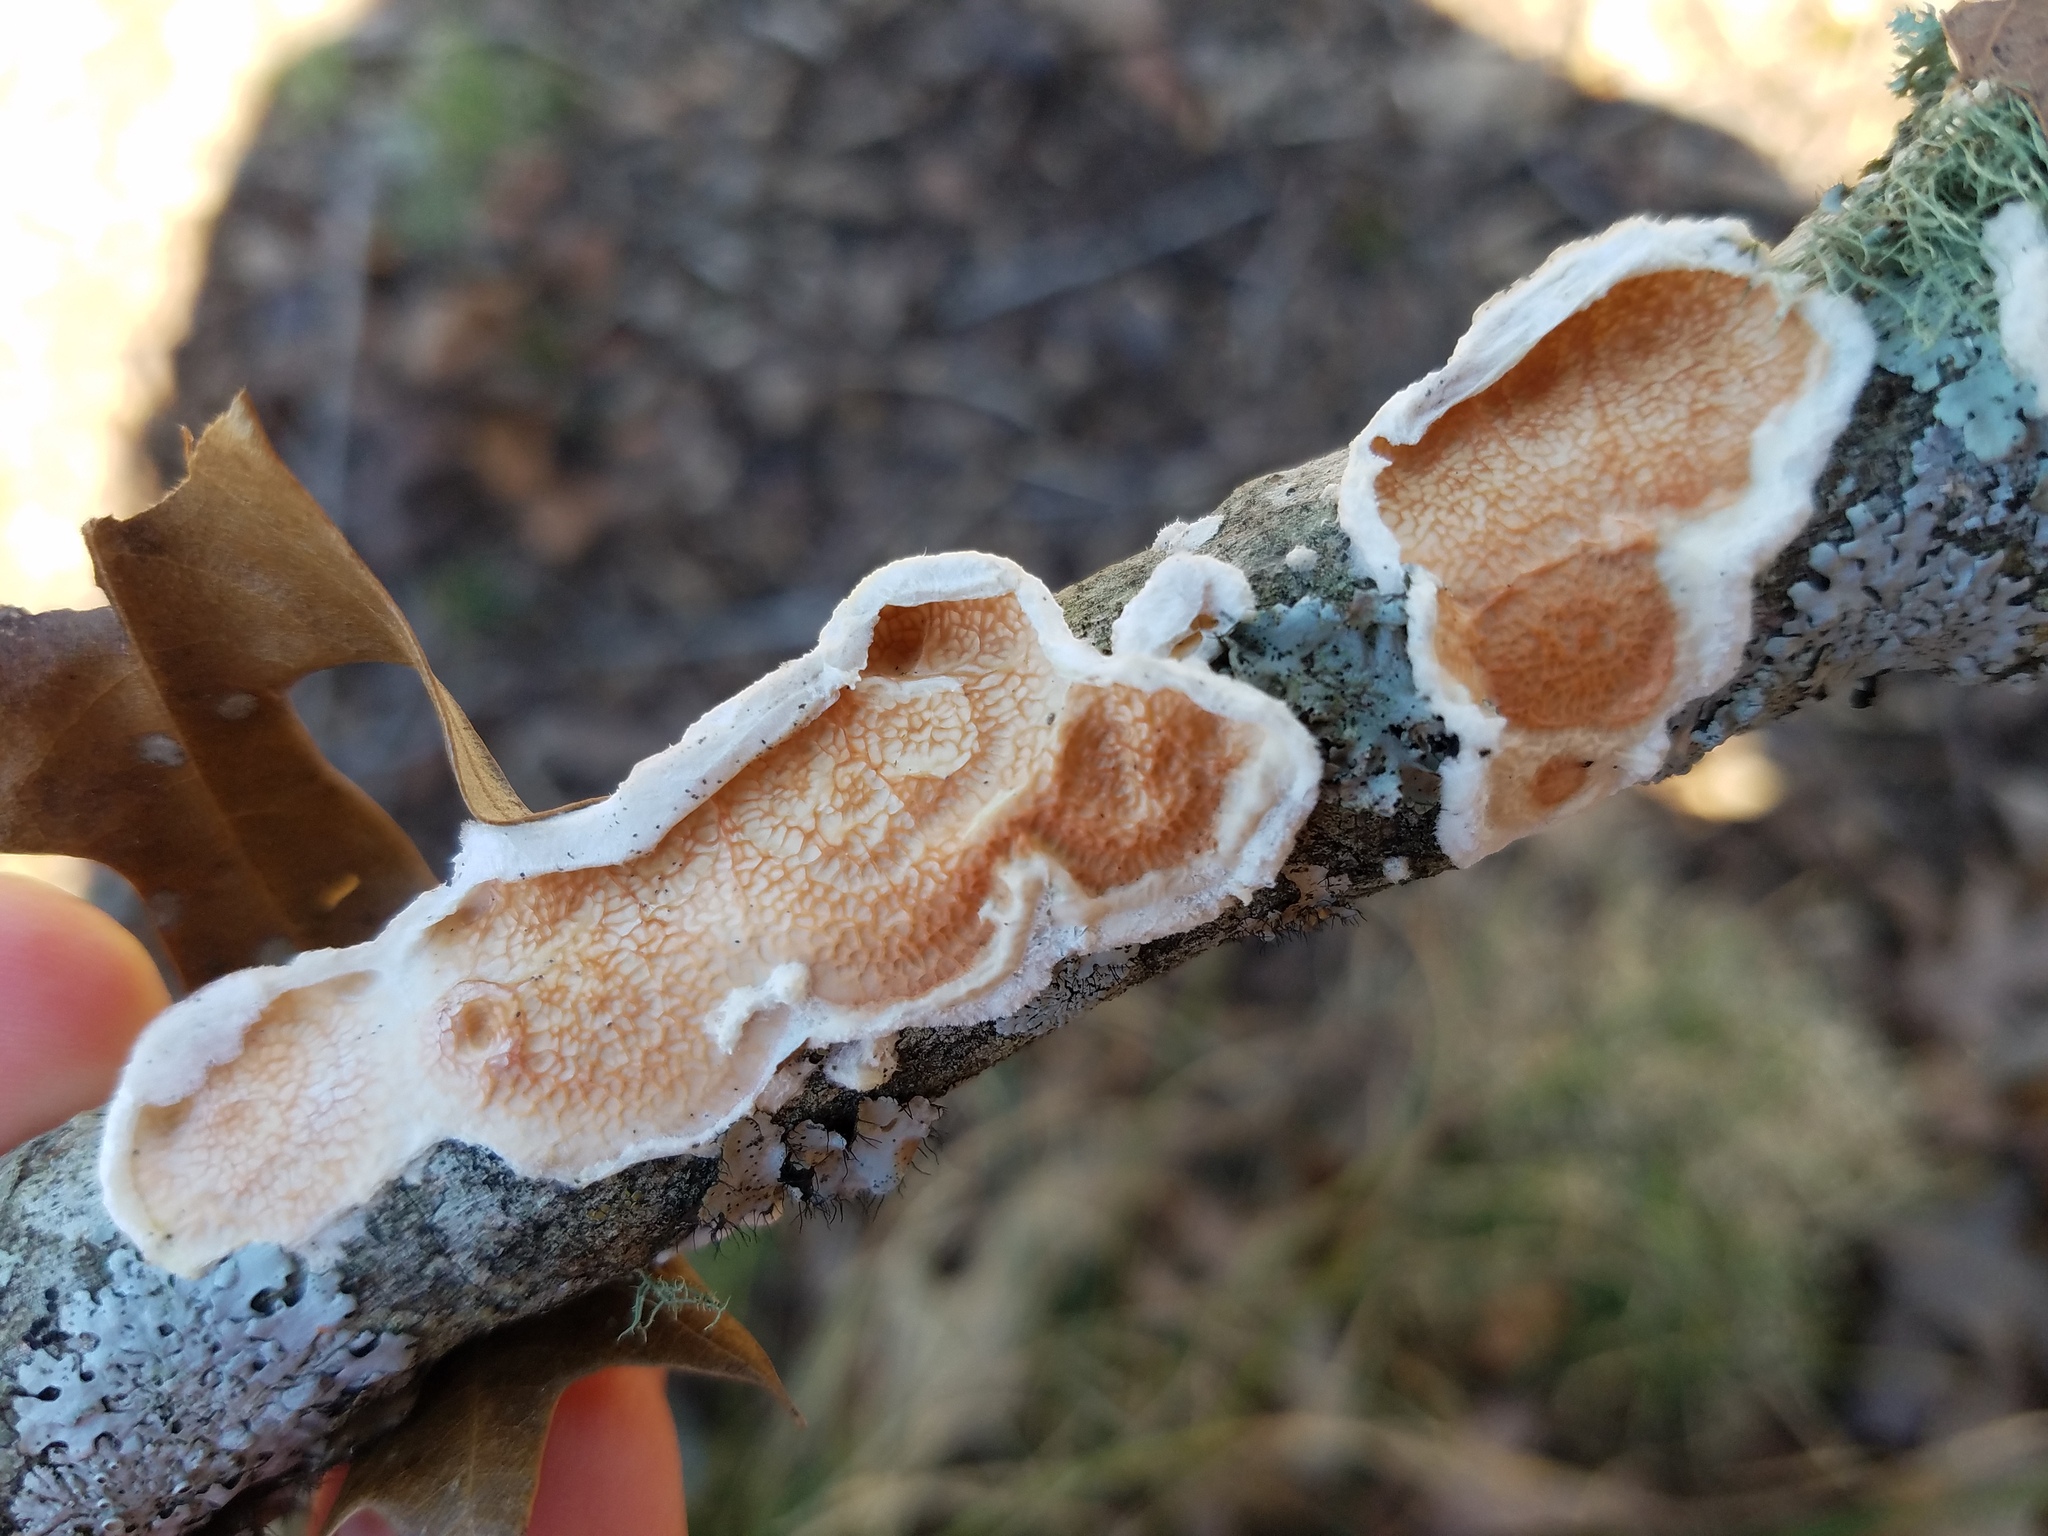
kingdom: Fungi
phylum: Basidiomycota
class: Agaricomycetes
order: Polyporales
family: Meruliaceae
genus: Phlebia
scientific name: Phlebia tremellosa
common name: Jelly rot
